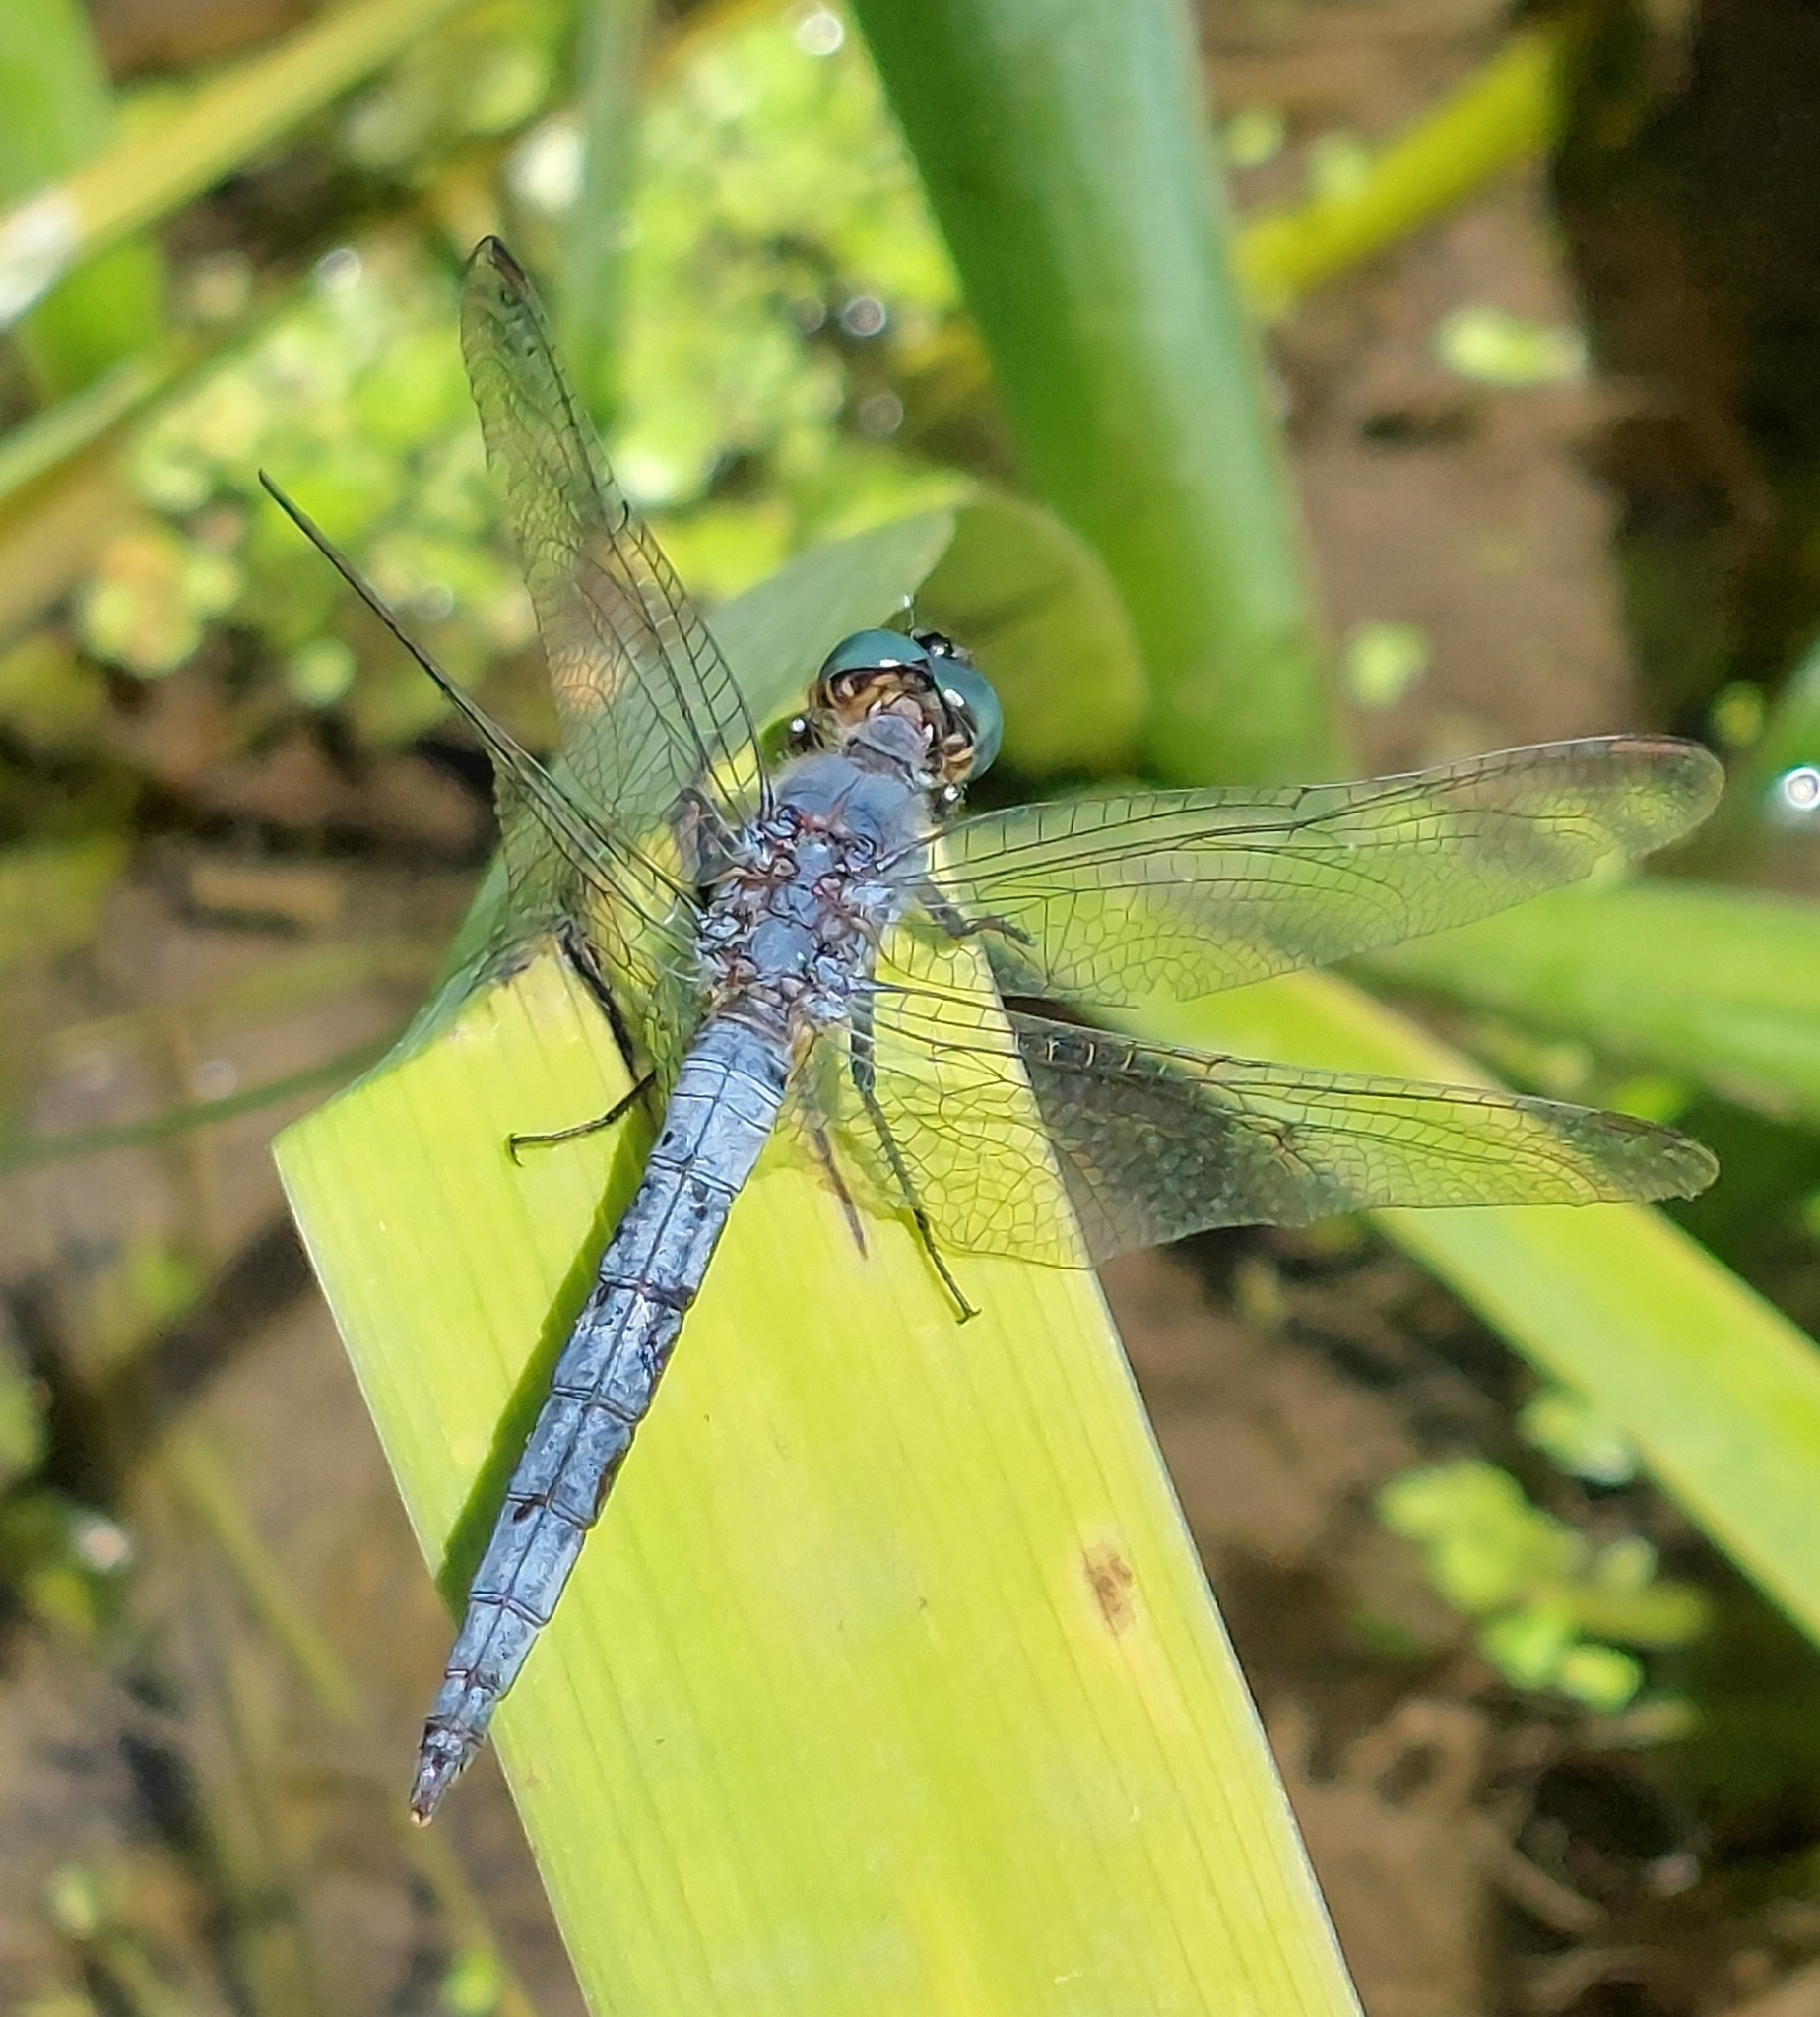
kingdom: Animalia
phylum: Arthropoda
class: Insecta
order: Odonata
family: Libellulidae
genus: Orthetrum
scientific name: Orthetrum coerulescens
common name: Keeled skimmer
